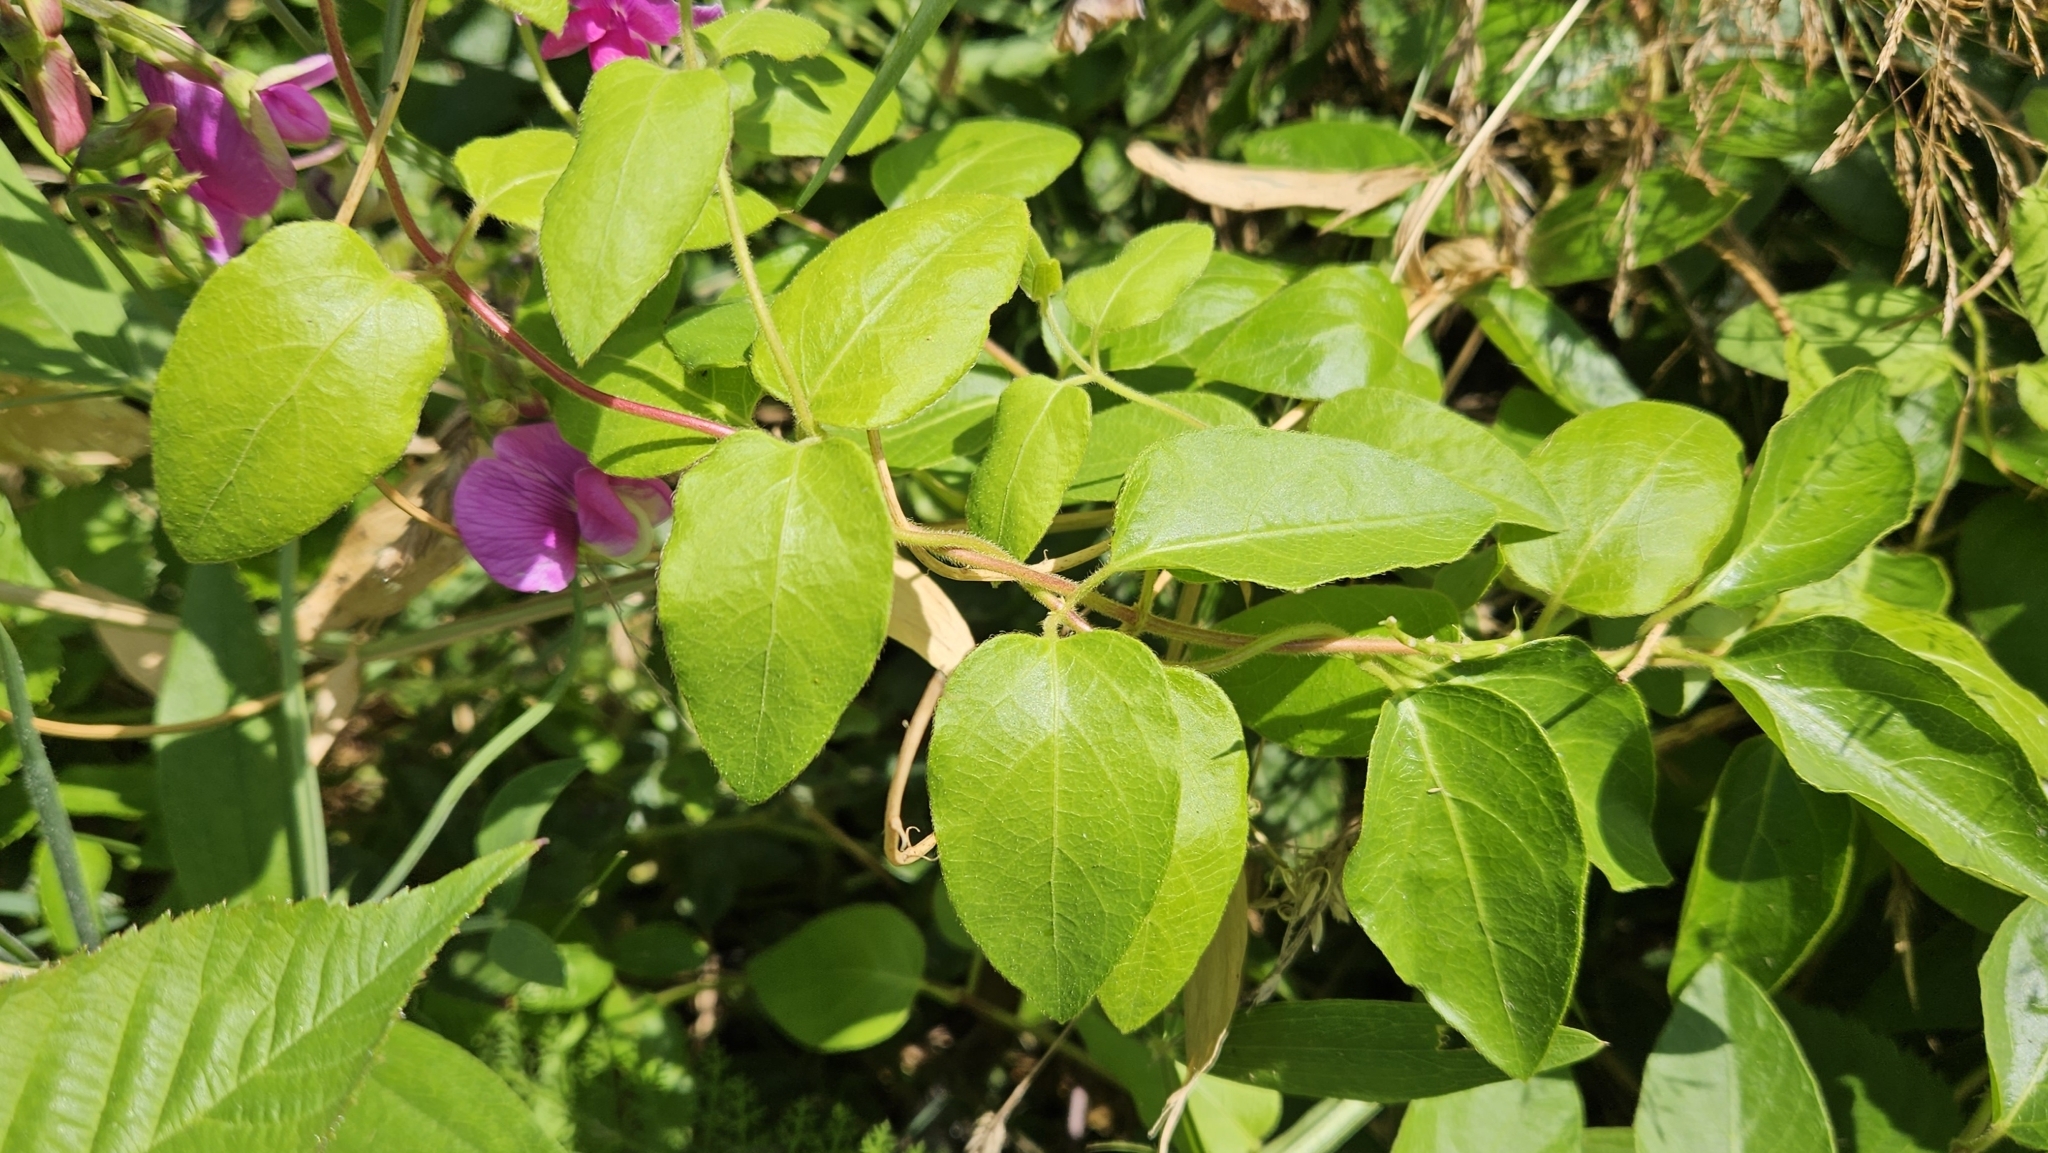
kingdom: Plantae
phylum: Tracheophyta
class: Magnoliopsida
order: Fabales
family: Fabaceae
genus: Lathyrus
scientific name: Lathyrus latifolius
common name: Perennial pea
